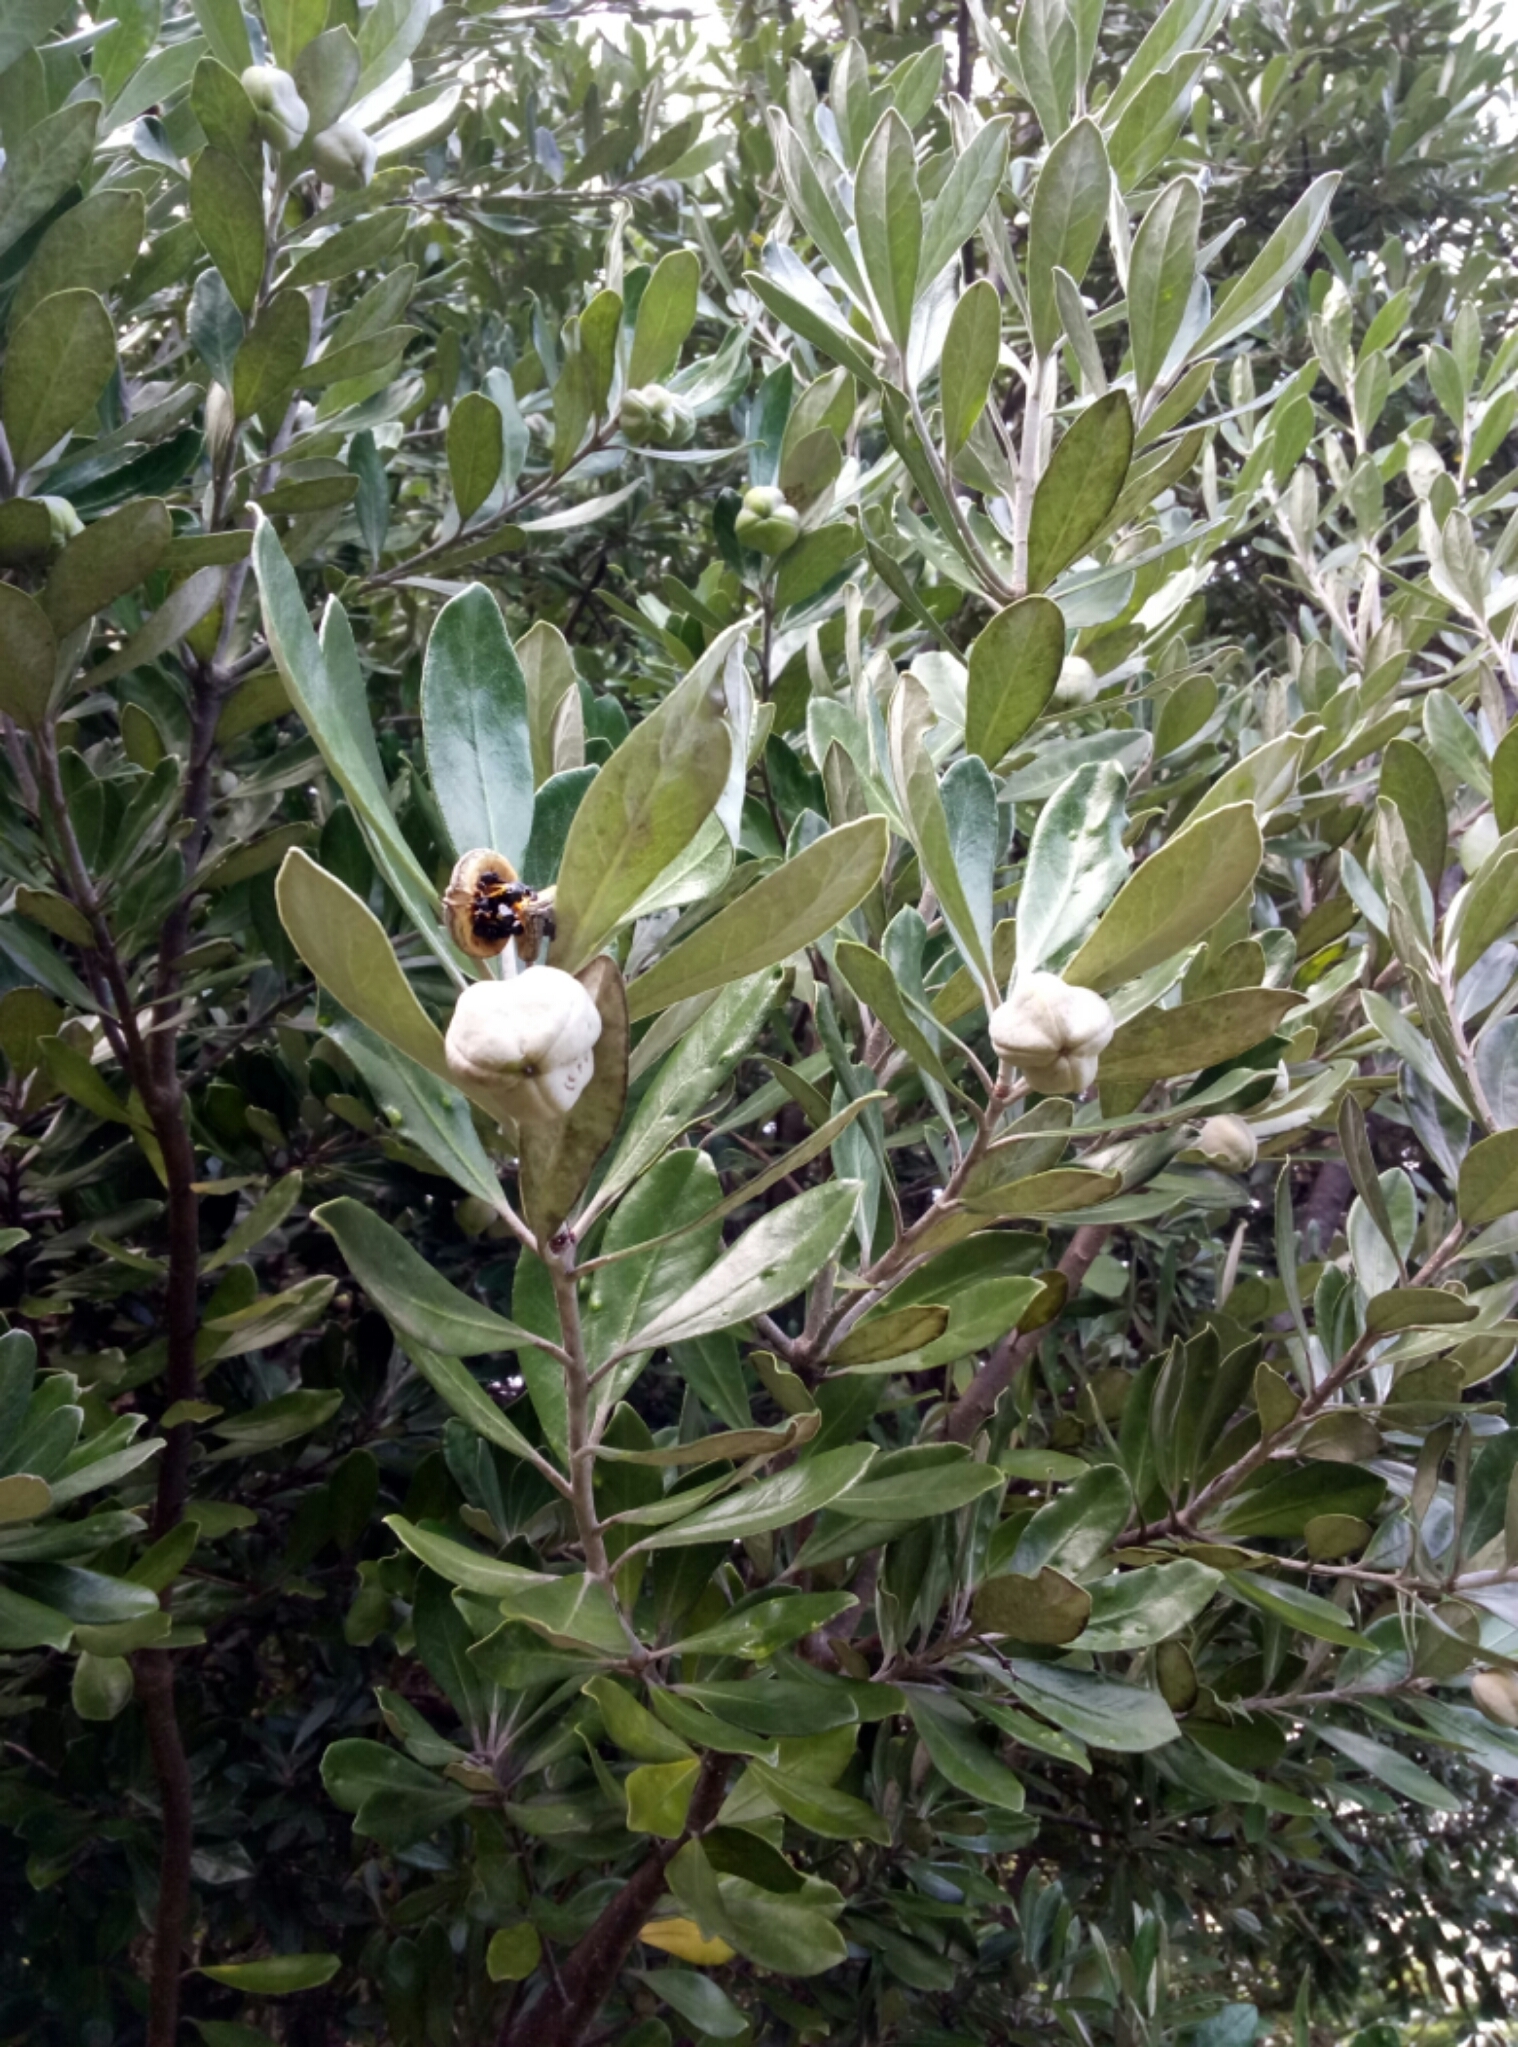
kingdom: Plantae
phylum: Tracheophyta
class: Magnoliopsida
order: Apiales
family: Pittosporaceae
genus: Pittosporum
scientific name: Pittosporum crassifolium
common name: Karo
